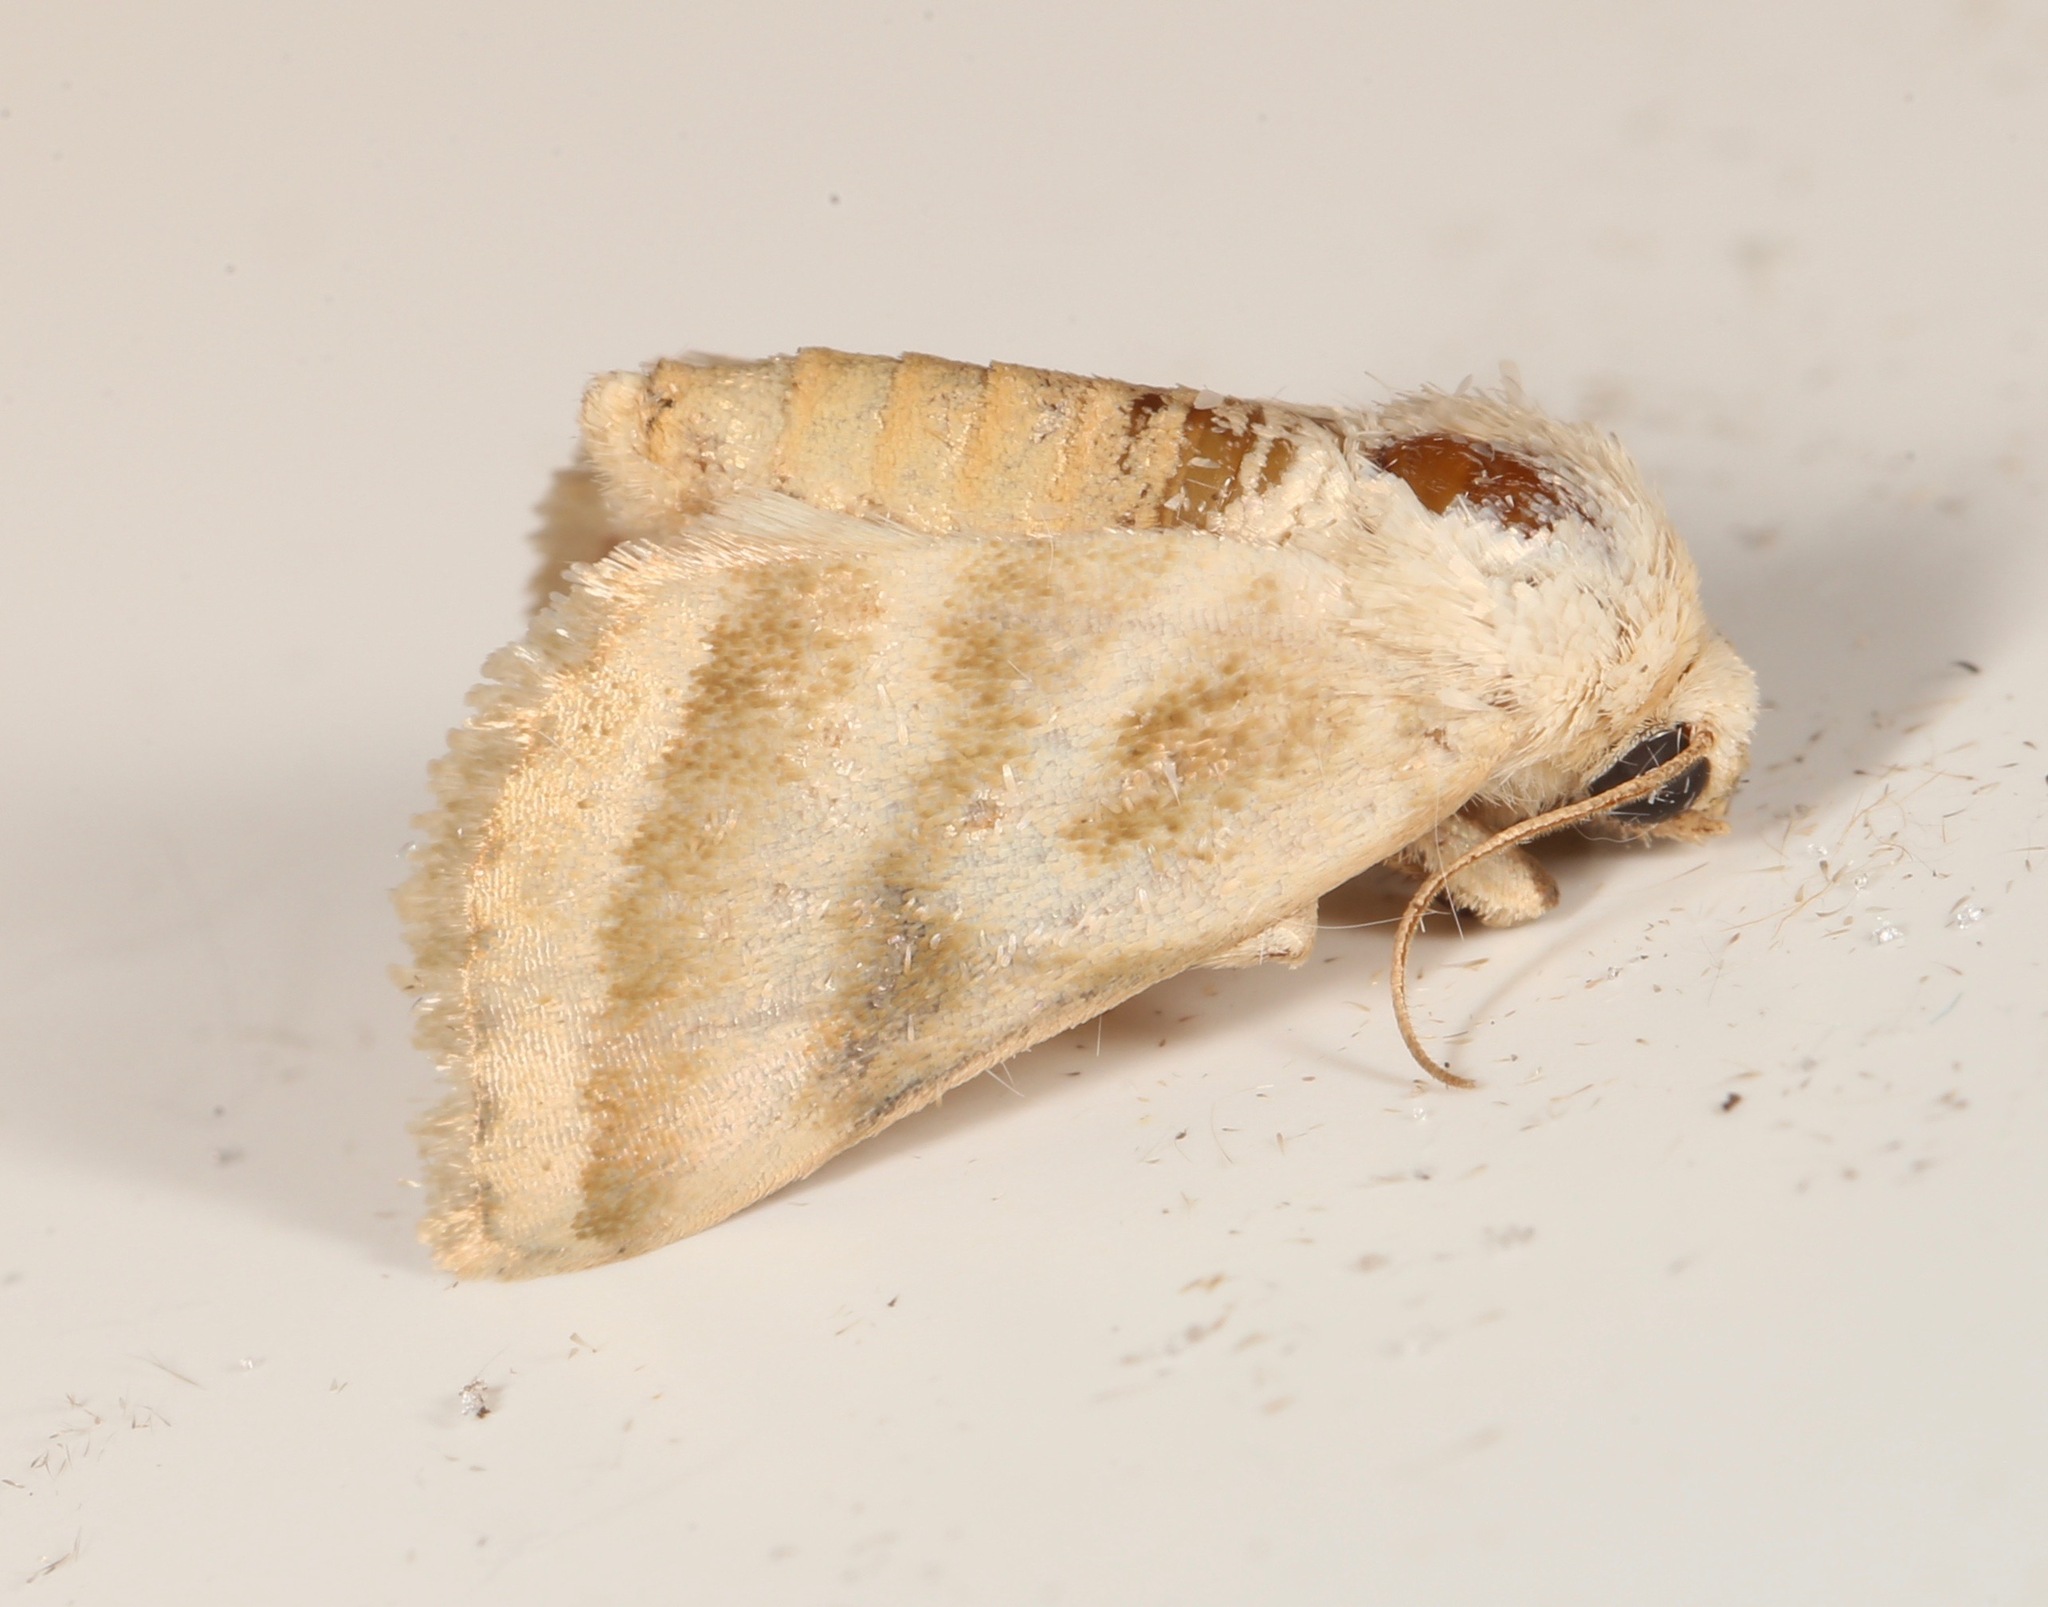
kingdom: Animalia
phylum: Arthropoda
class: Insecta
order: Lepidoptera
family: Noctuidae
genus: Schinia
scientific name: Schinia trifascia
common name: Three-lined flower moth
